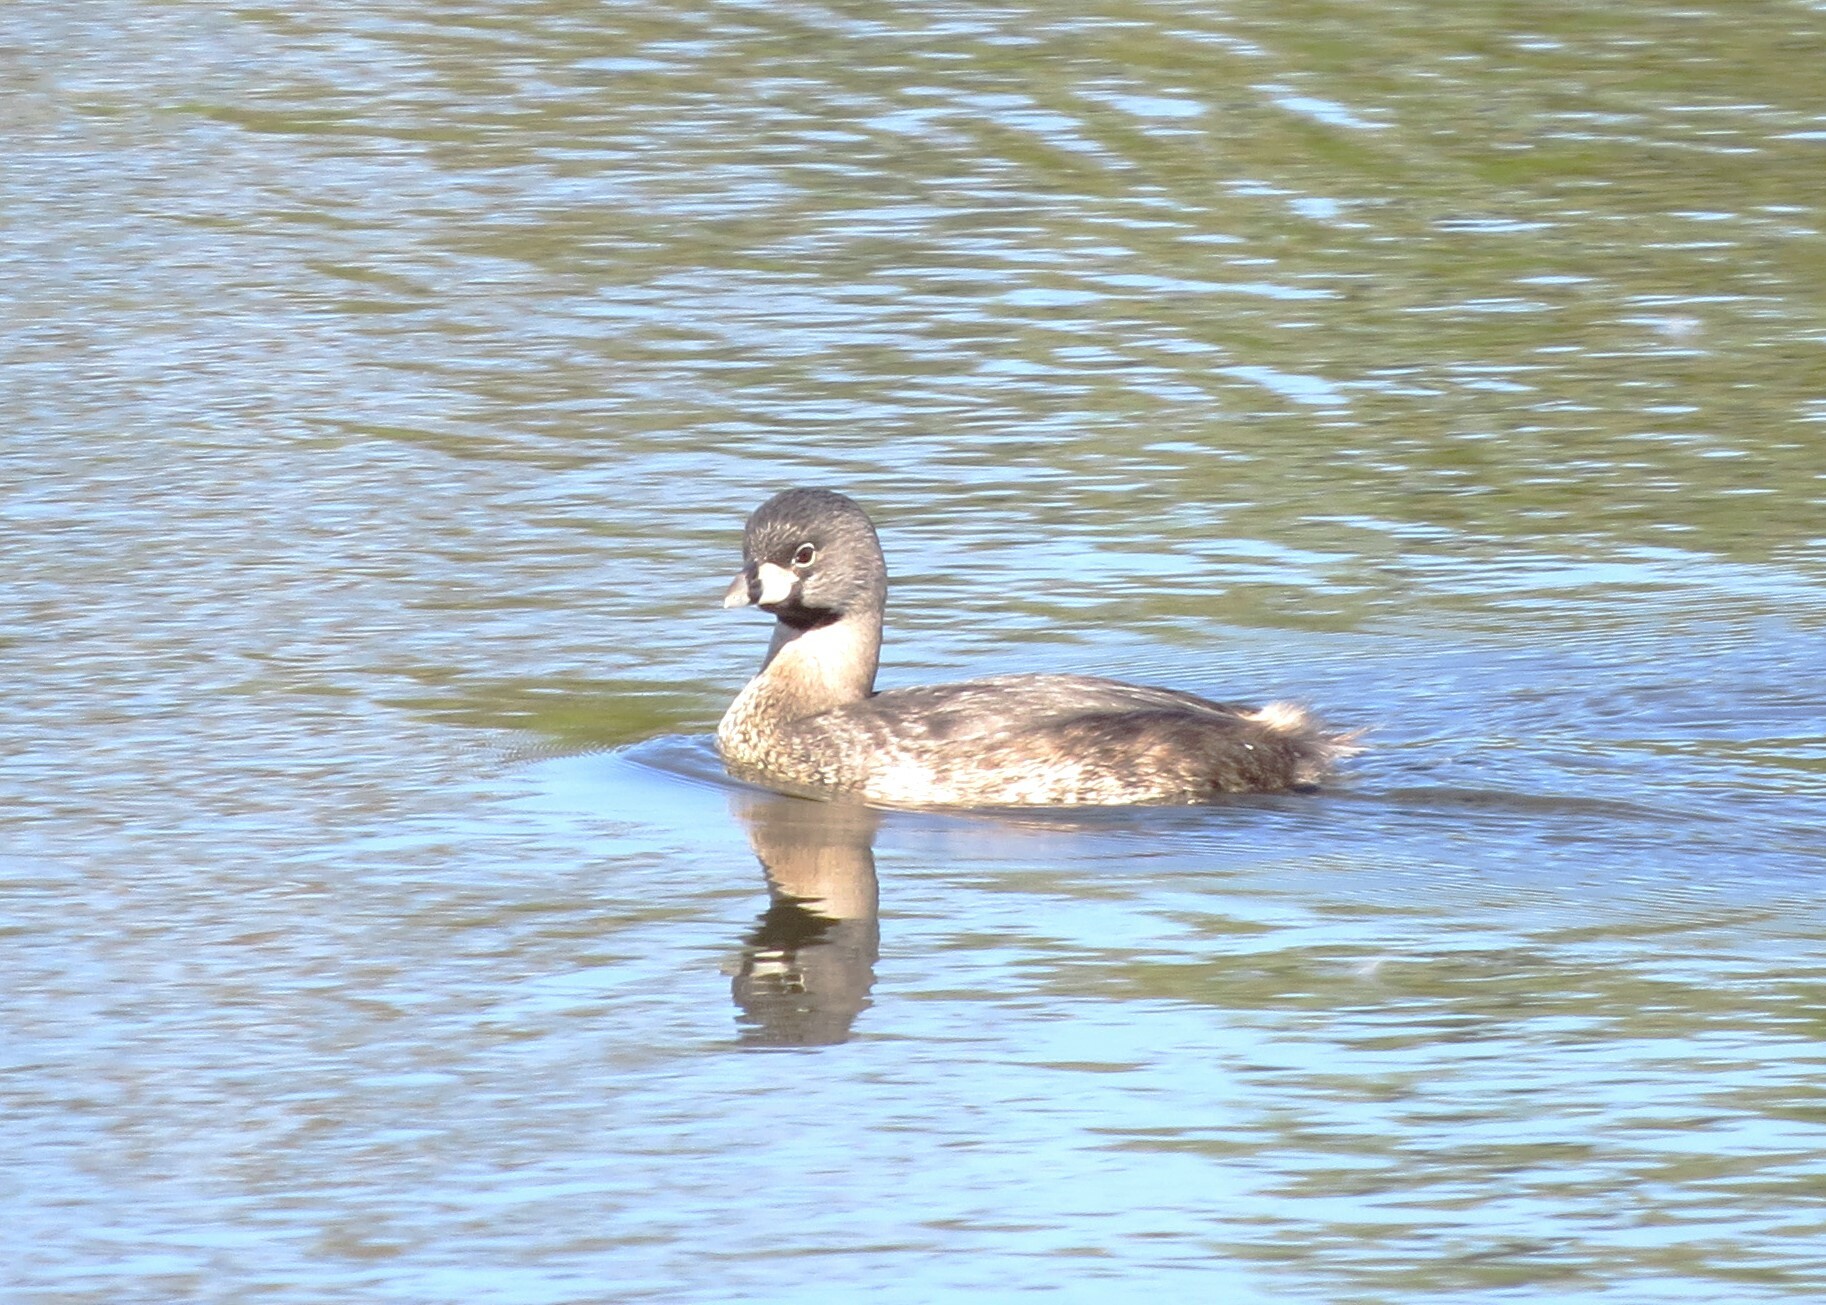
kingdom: Animalia
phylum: Chordata
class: Aves
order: Podicipediformes
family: Podicipedidae
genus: Podilymbus
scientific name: Podilymbus podiceps
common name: Pied-billed grebe
